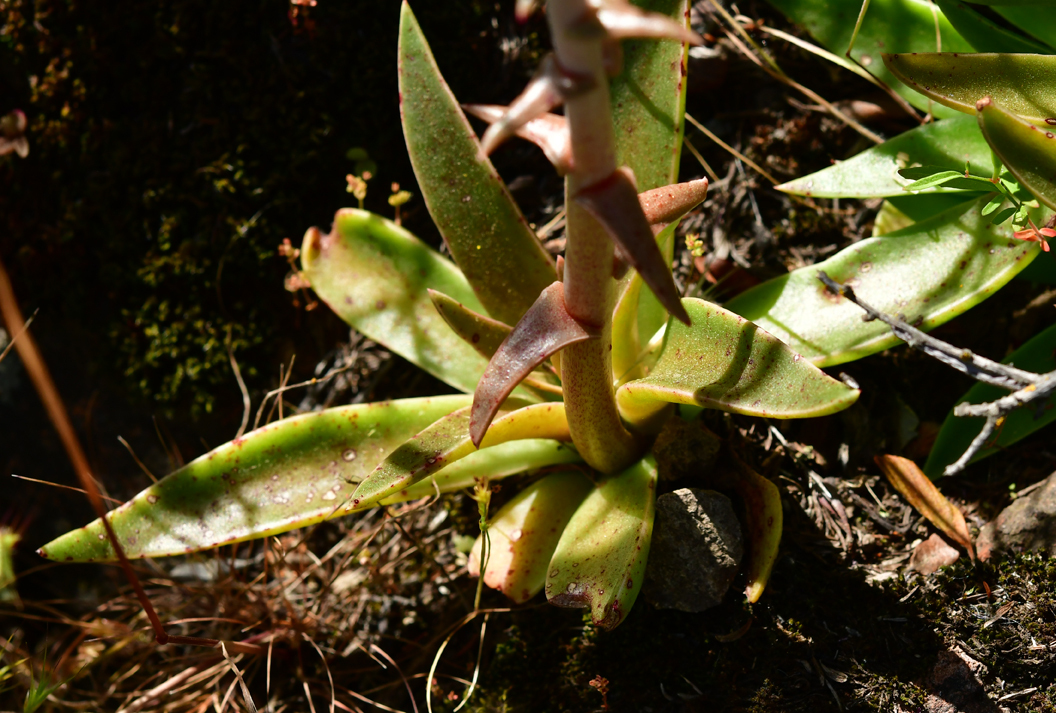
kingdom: Plantae
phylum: Tracheophyta
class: Magnoliopsida
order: Saxifragales
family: Crassulaceae
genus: Dudleya
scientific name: Dudleya lanceolata
